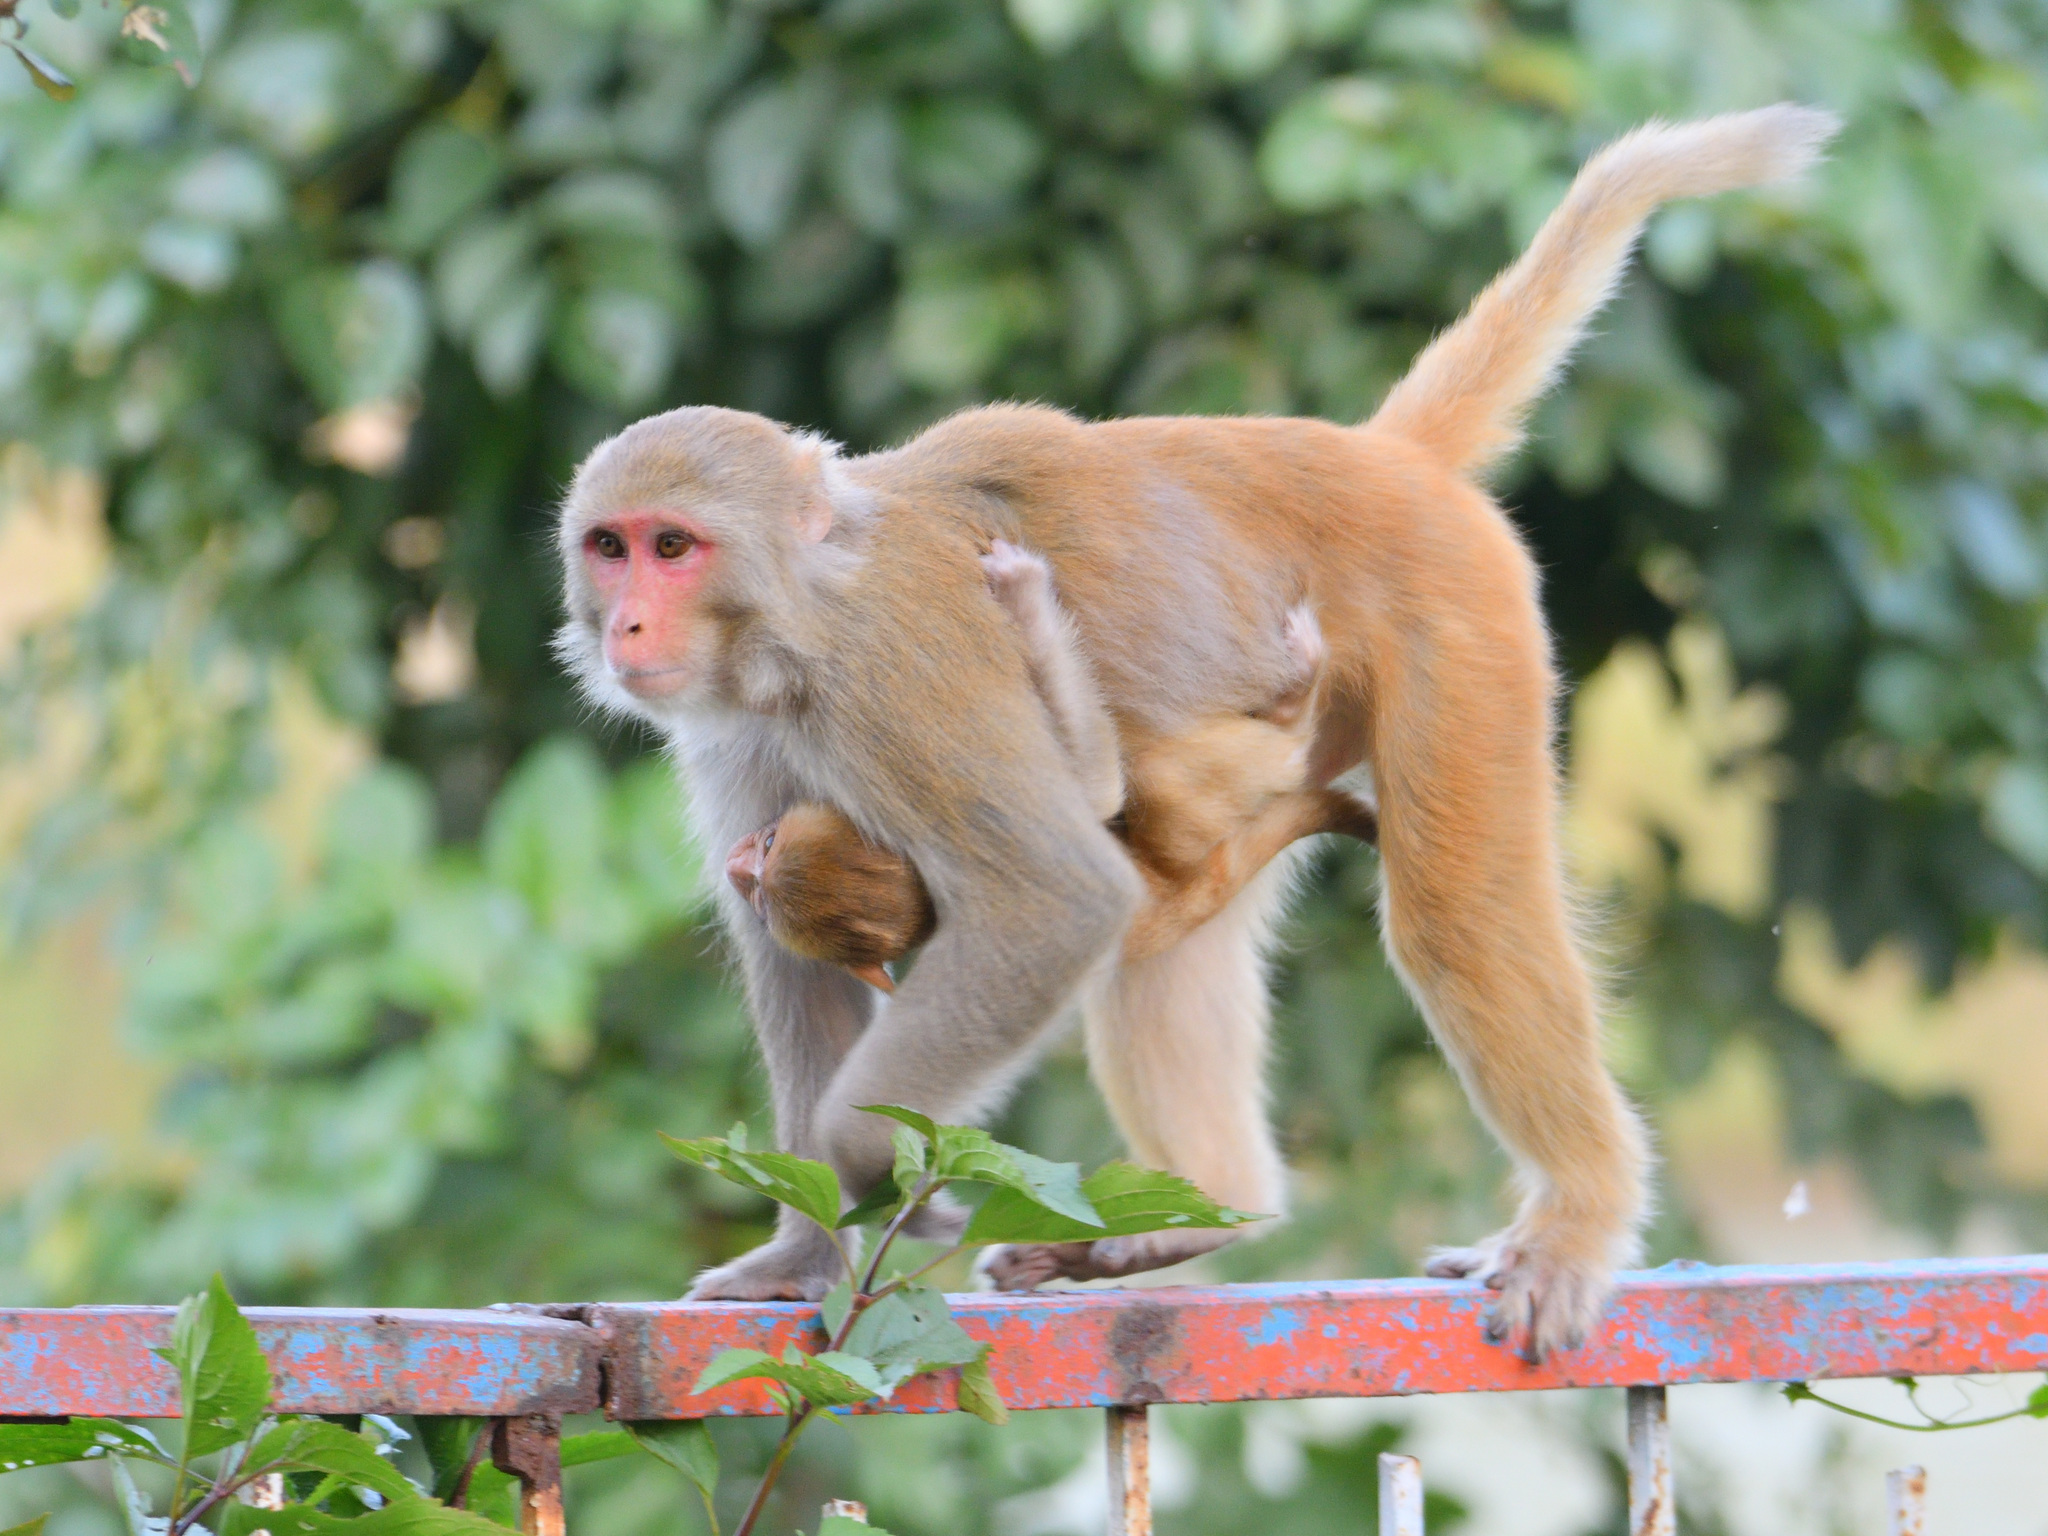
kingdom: Animalia
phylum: Chordata
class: Mammalia
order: Primates
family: Cercopithecidae
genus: Macaca
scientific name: Macaca mulatta
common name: Rhesus monkey
